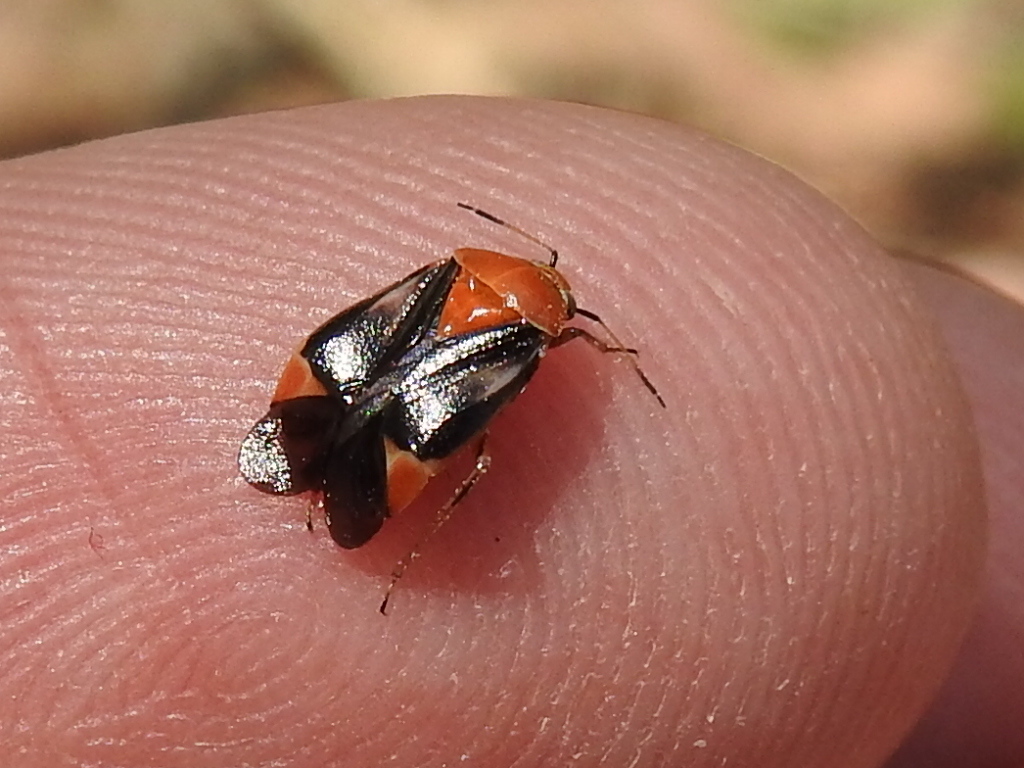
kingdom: Animalia
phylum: Arthropoda
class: Insecta
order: Hemiptera
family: Miridae
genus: Neocapsus
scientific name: Neocapsus cuneatus
